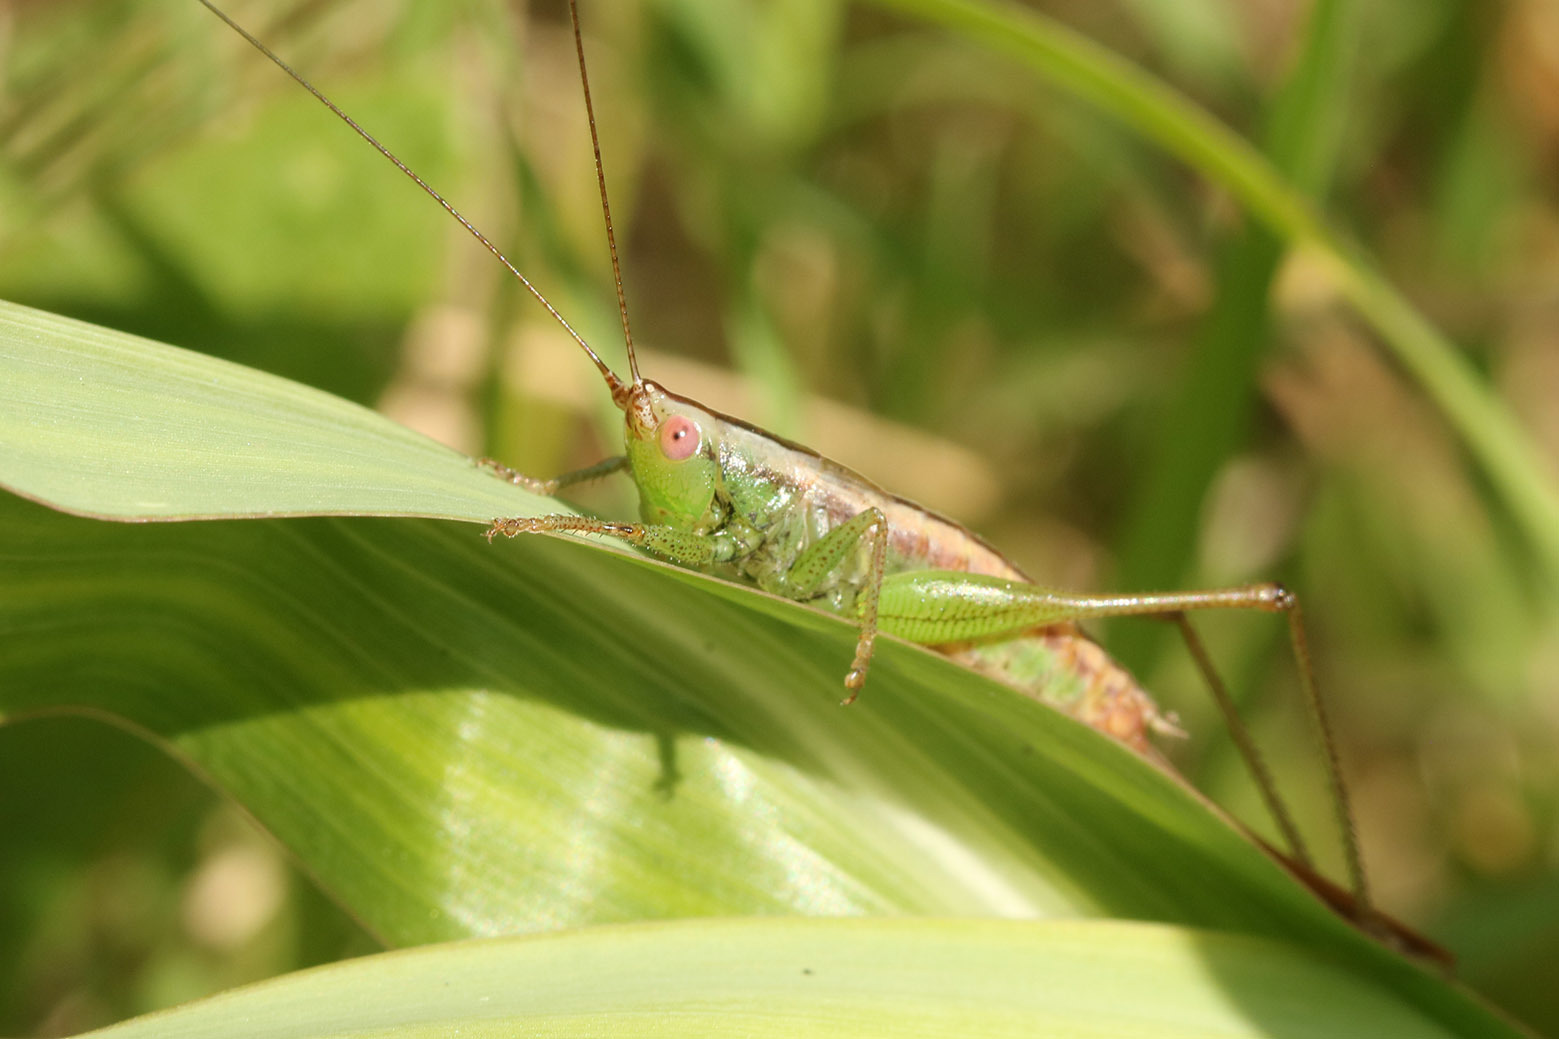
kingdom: Animalia
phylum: Arthropoda
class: Insecta
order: Orthoptera
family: Tettigoniidae
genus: Conocephalus
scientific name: Conocephalus doryphorus
